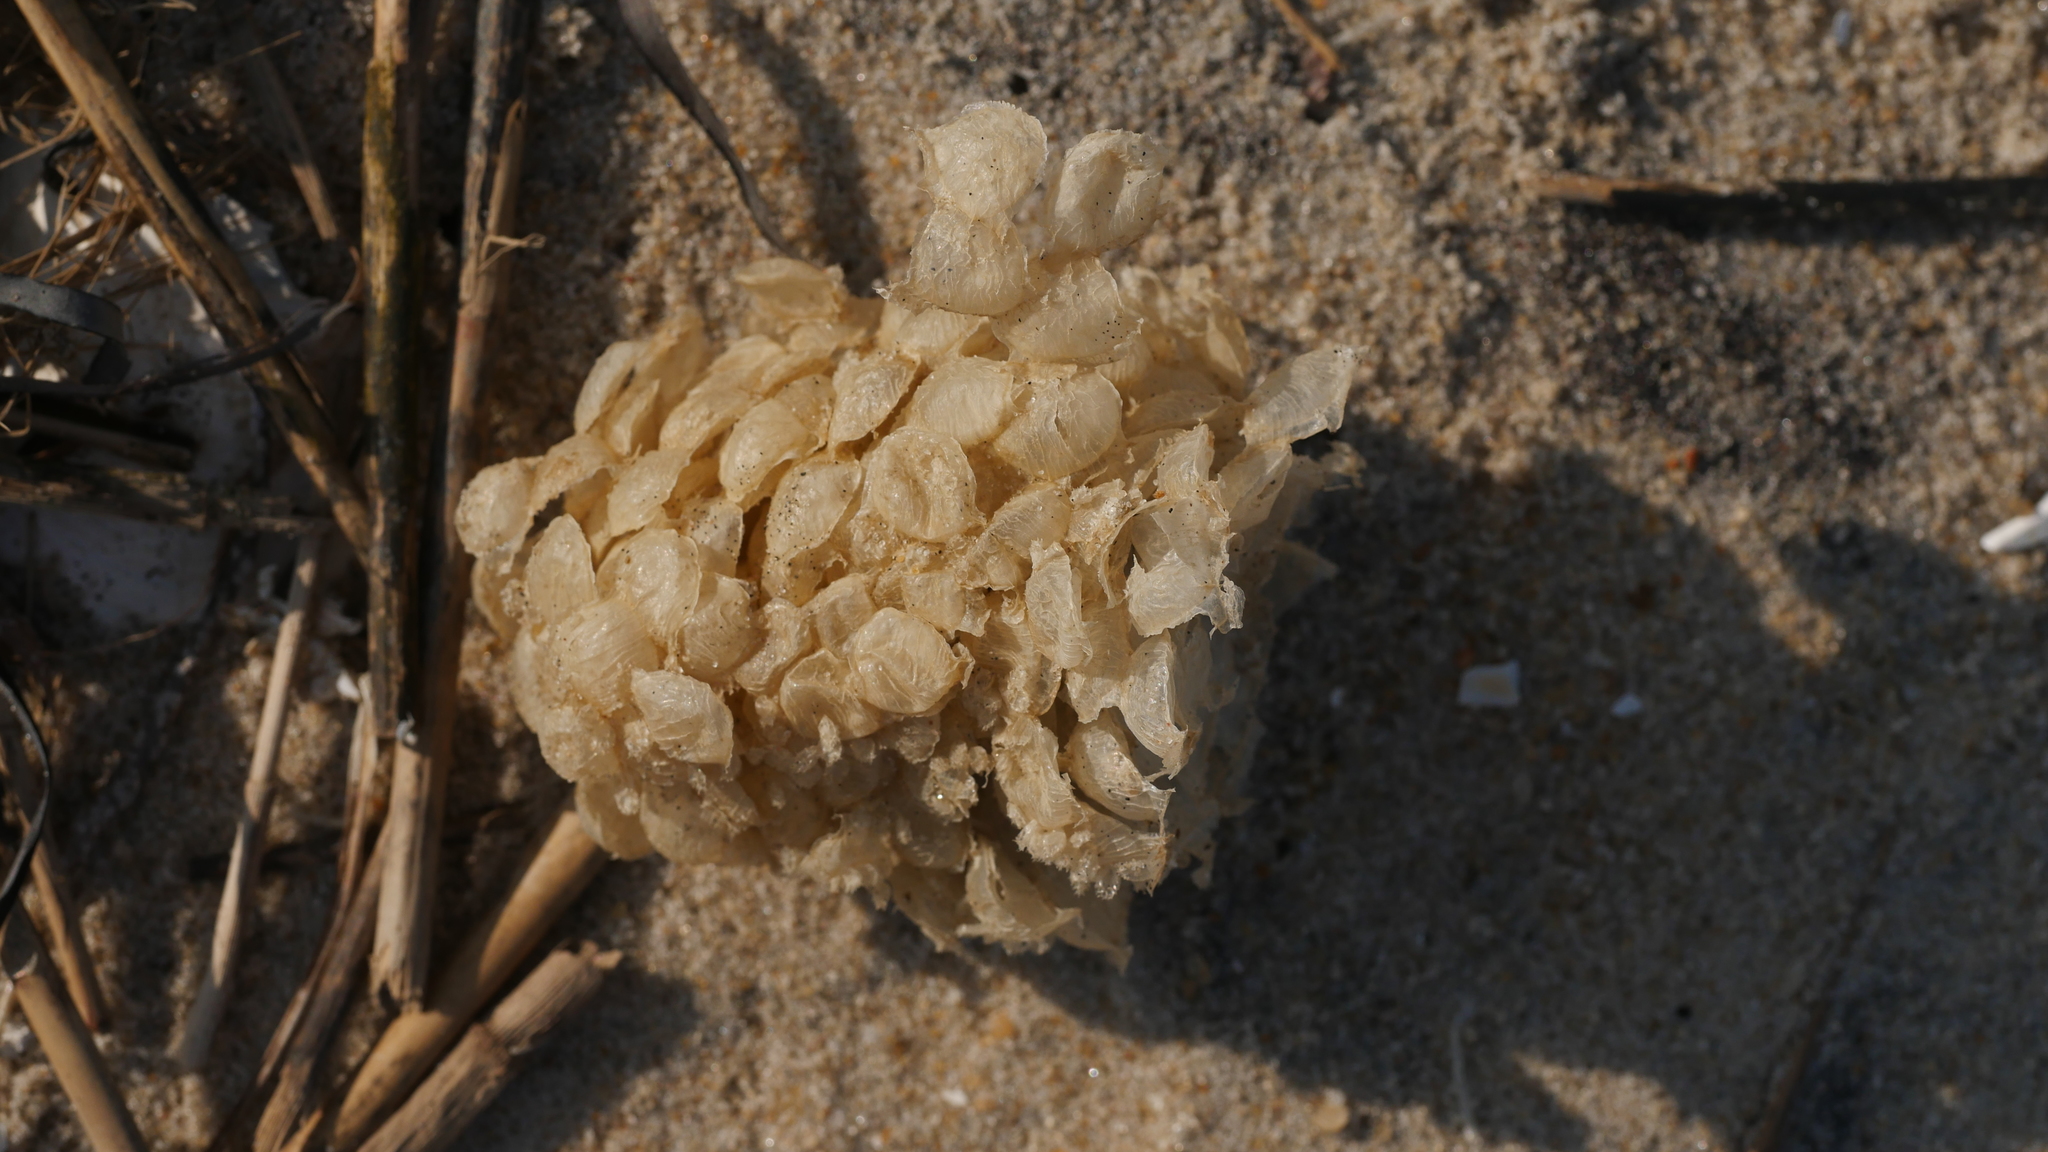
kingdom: Animalia
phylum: Mollusca
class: Gastropoda
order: Neogastropoda
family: Buccinidae
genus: Buccinum
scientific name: Buccinum undatum
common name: Common whelk
